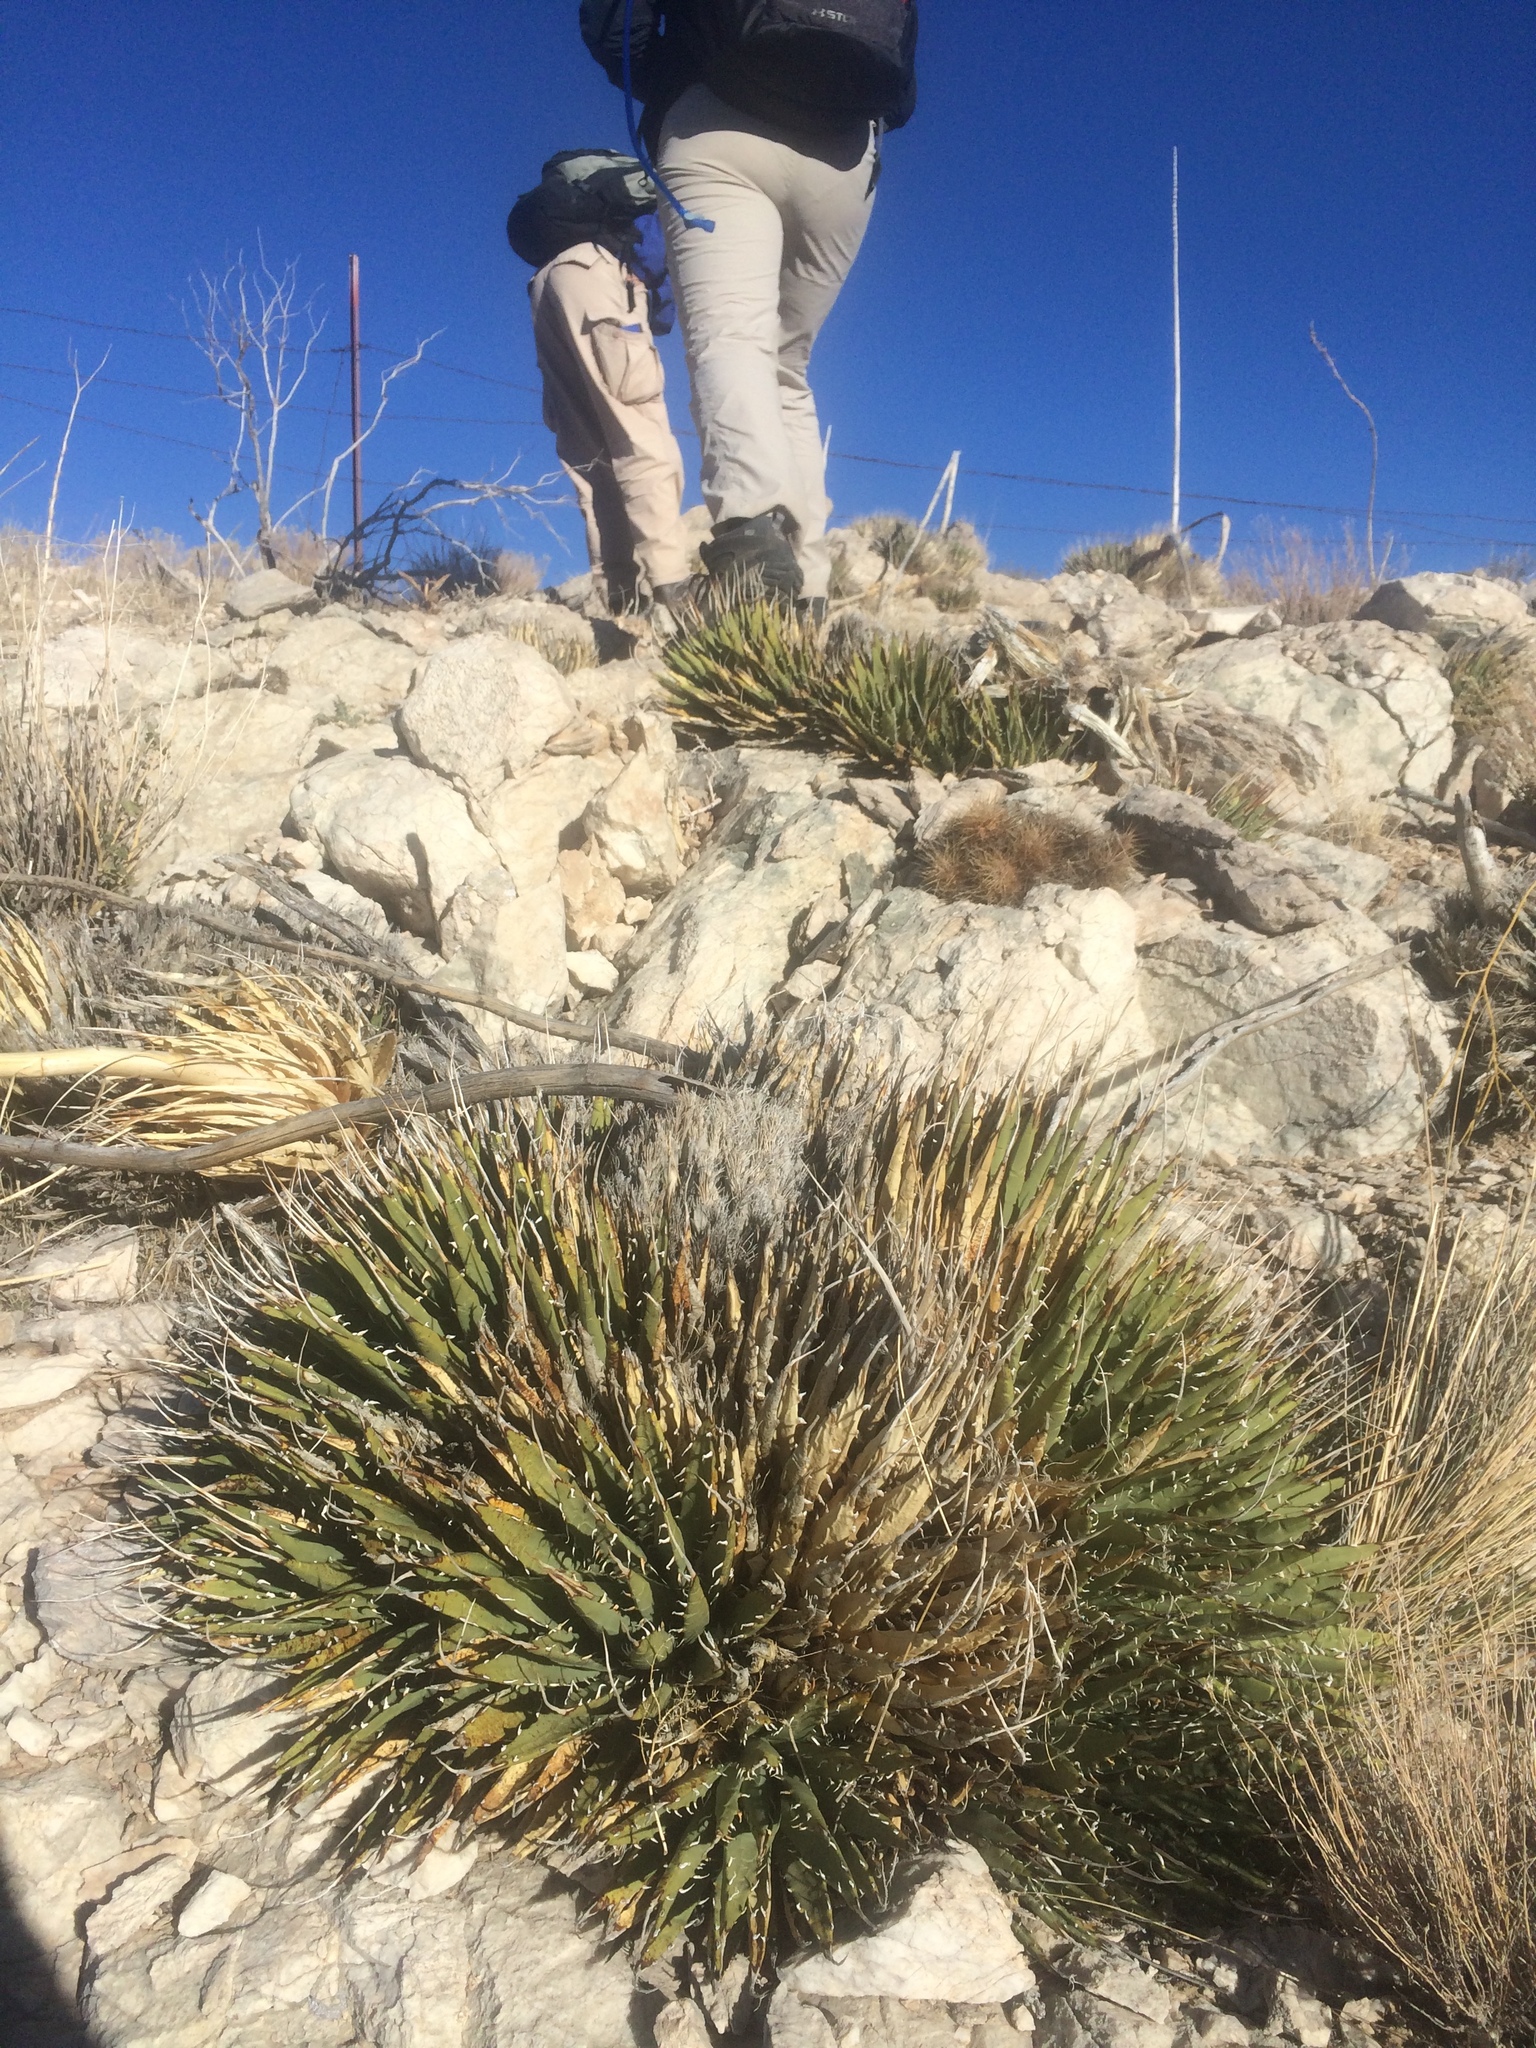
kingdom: Plantae
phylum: Tracheophyta
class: Liliopsida
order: Asparagales
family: Asparagaceae
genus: Agave
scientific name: Agave utahensis
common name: Utah agave
